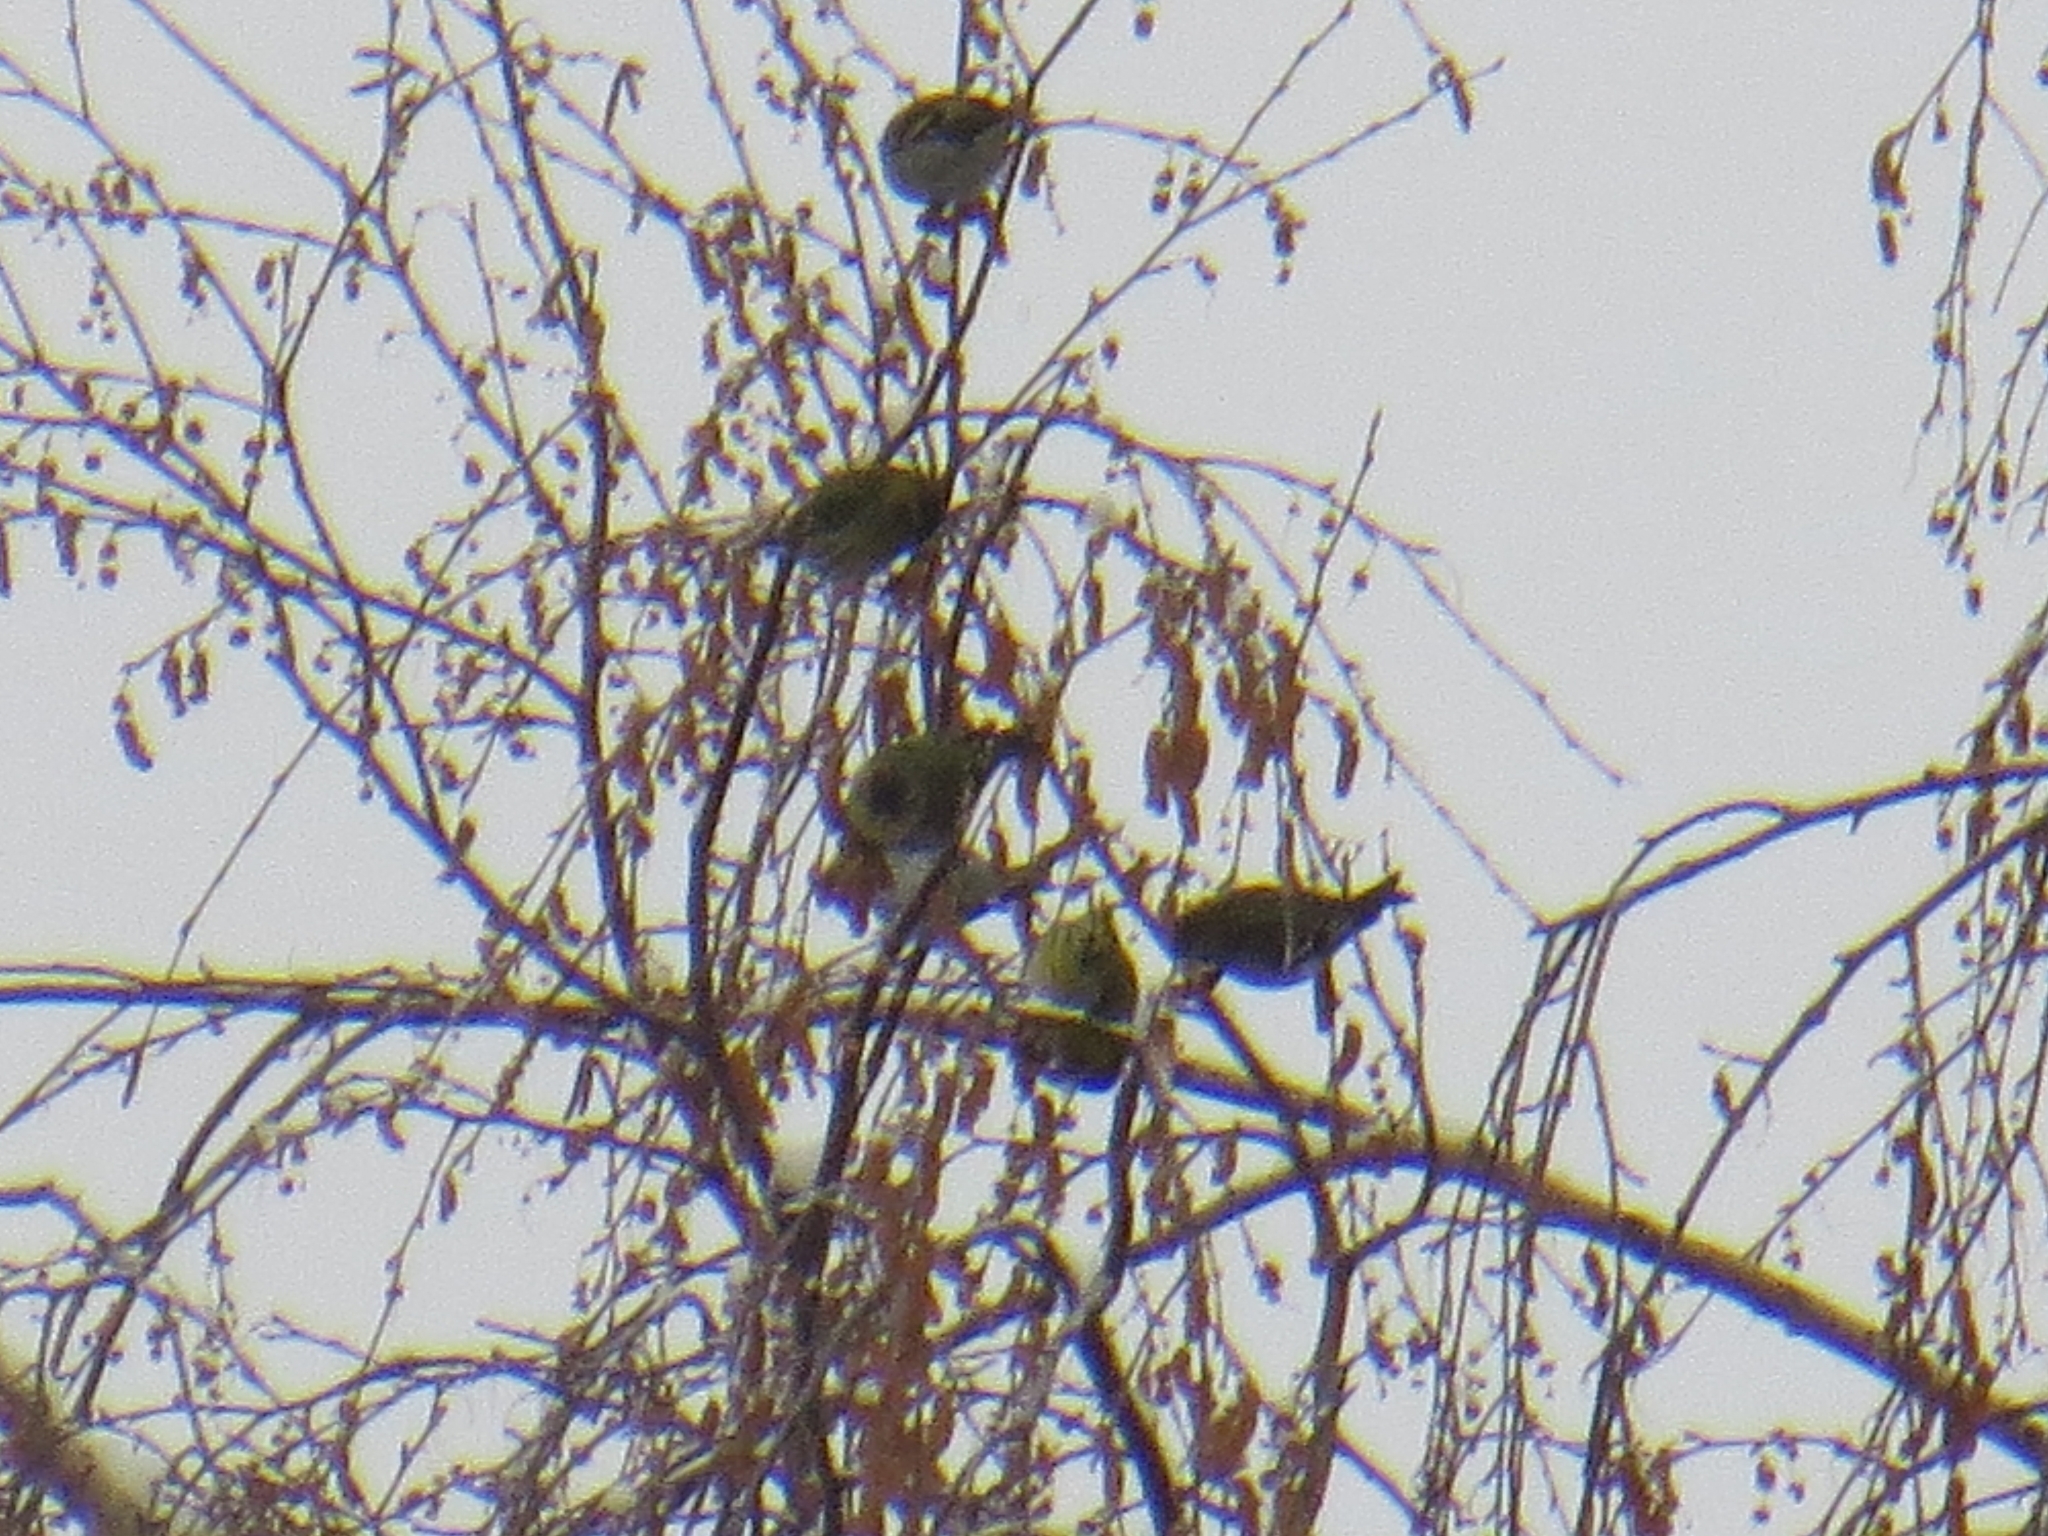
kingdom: Animalia
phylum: Chordata
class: Aves
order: Passeriformes
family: Fringillidae
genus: Spinus
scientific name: Spinus spinus
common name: Eurasian siskin
